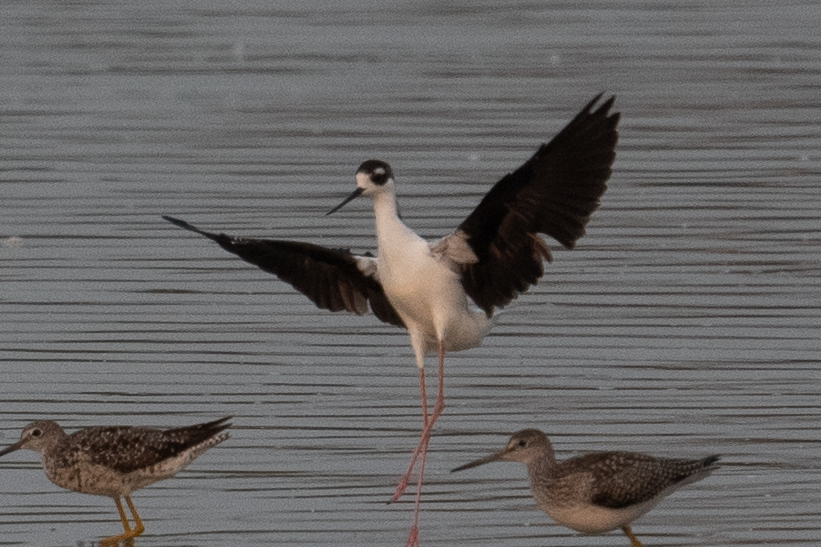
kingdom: Animalia
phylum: Chordata
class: Aves
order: Charadriiformes
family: Recurvirostridae
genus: Himantopus
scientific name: Himantopus mexicanus
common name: Black-necked stilt
